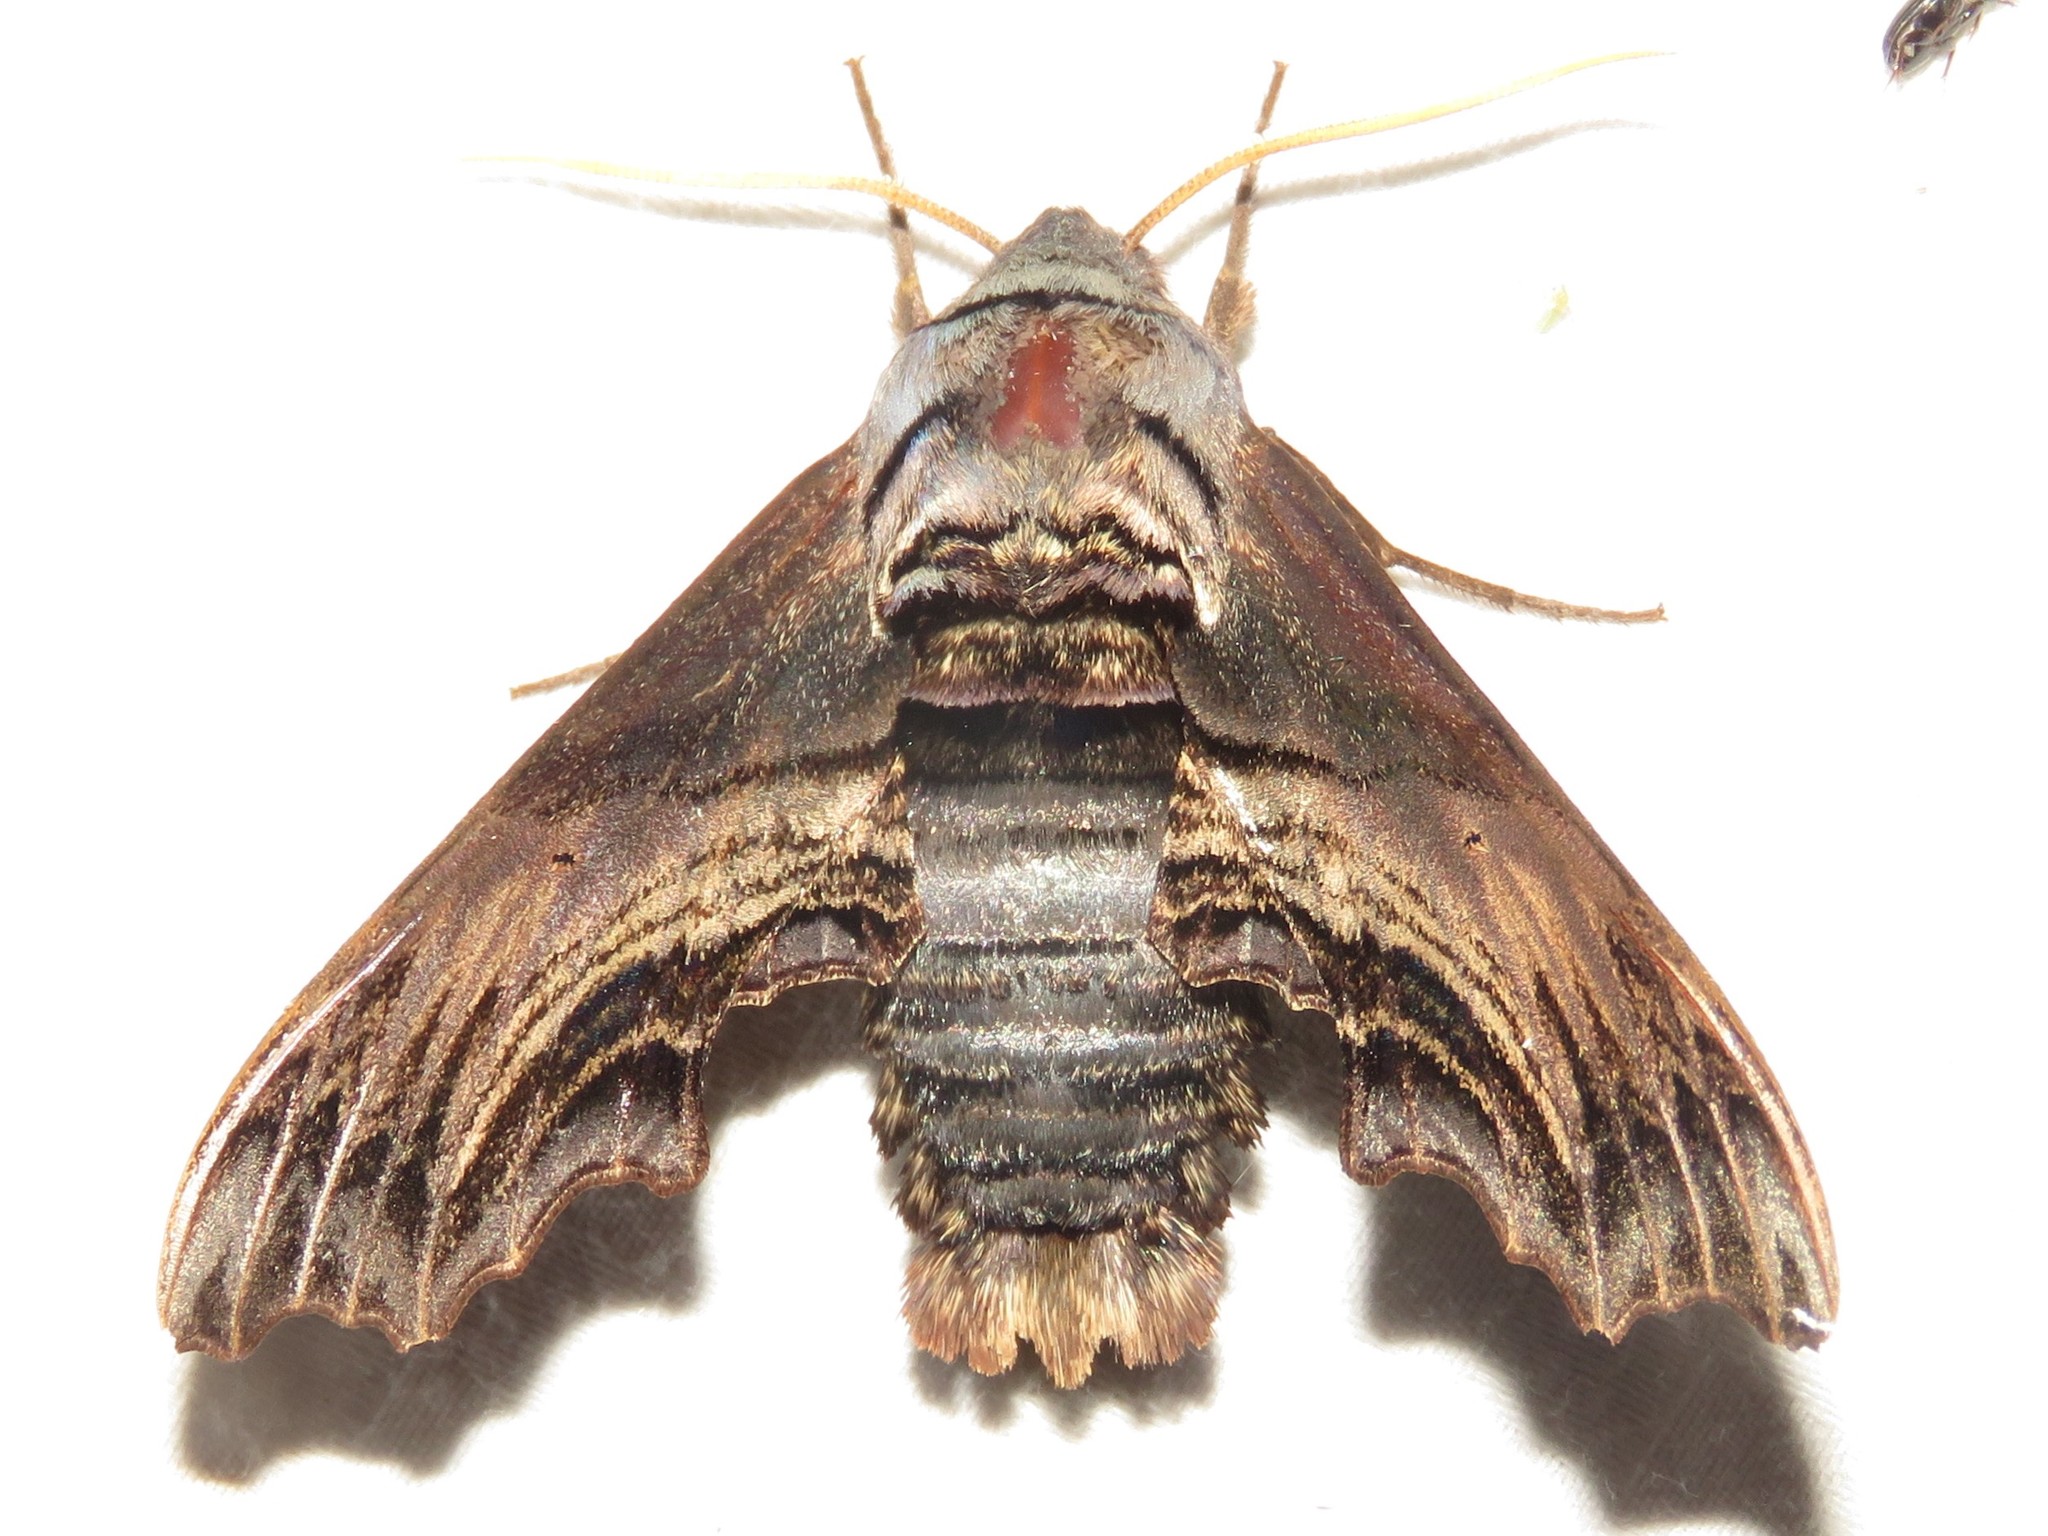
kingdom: Animalia
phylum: Arthropoda
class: Insecta
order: Lepidoptera
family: Sphingidae
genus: Sphecodina
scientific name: Sphecodina abbottii
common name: Abbott's sphinx
